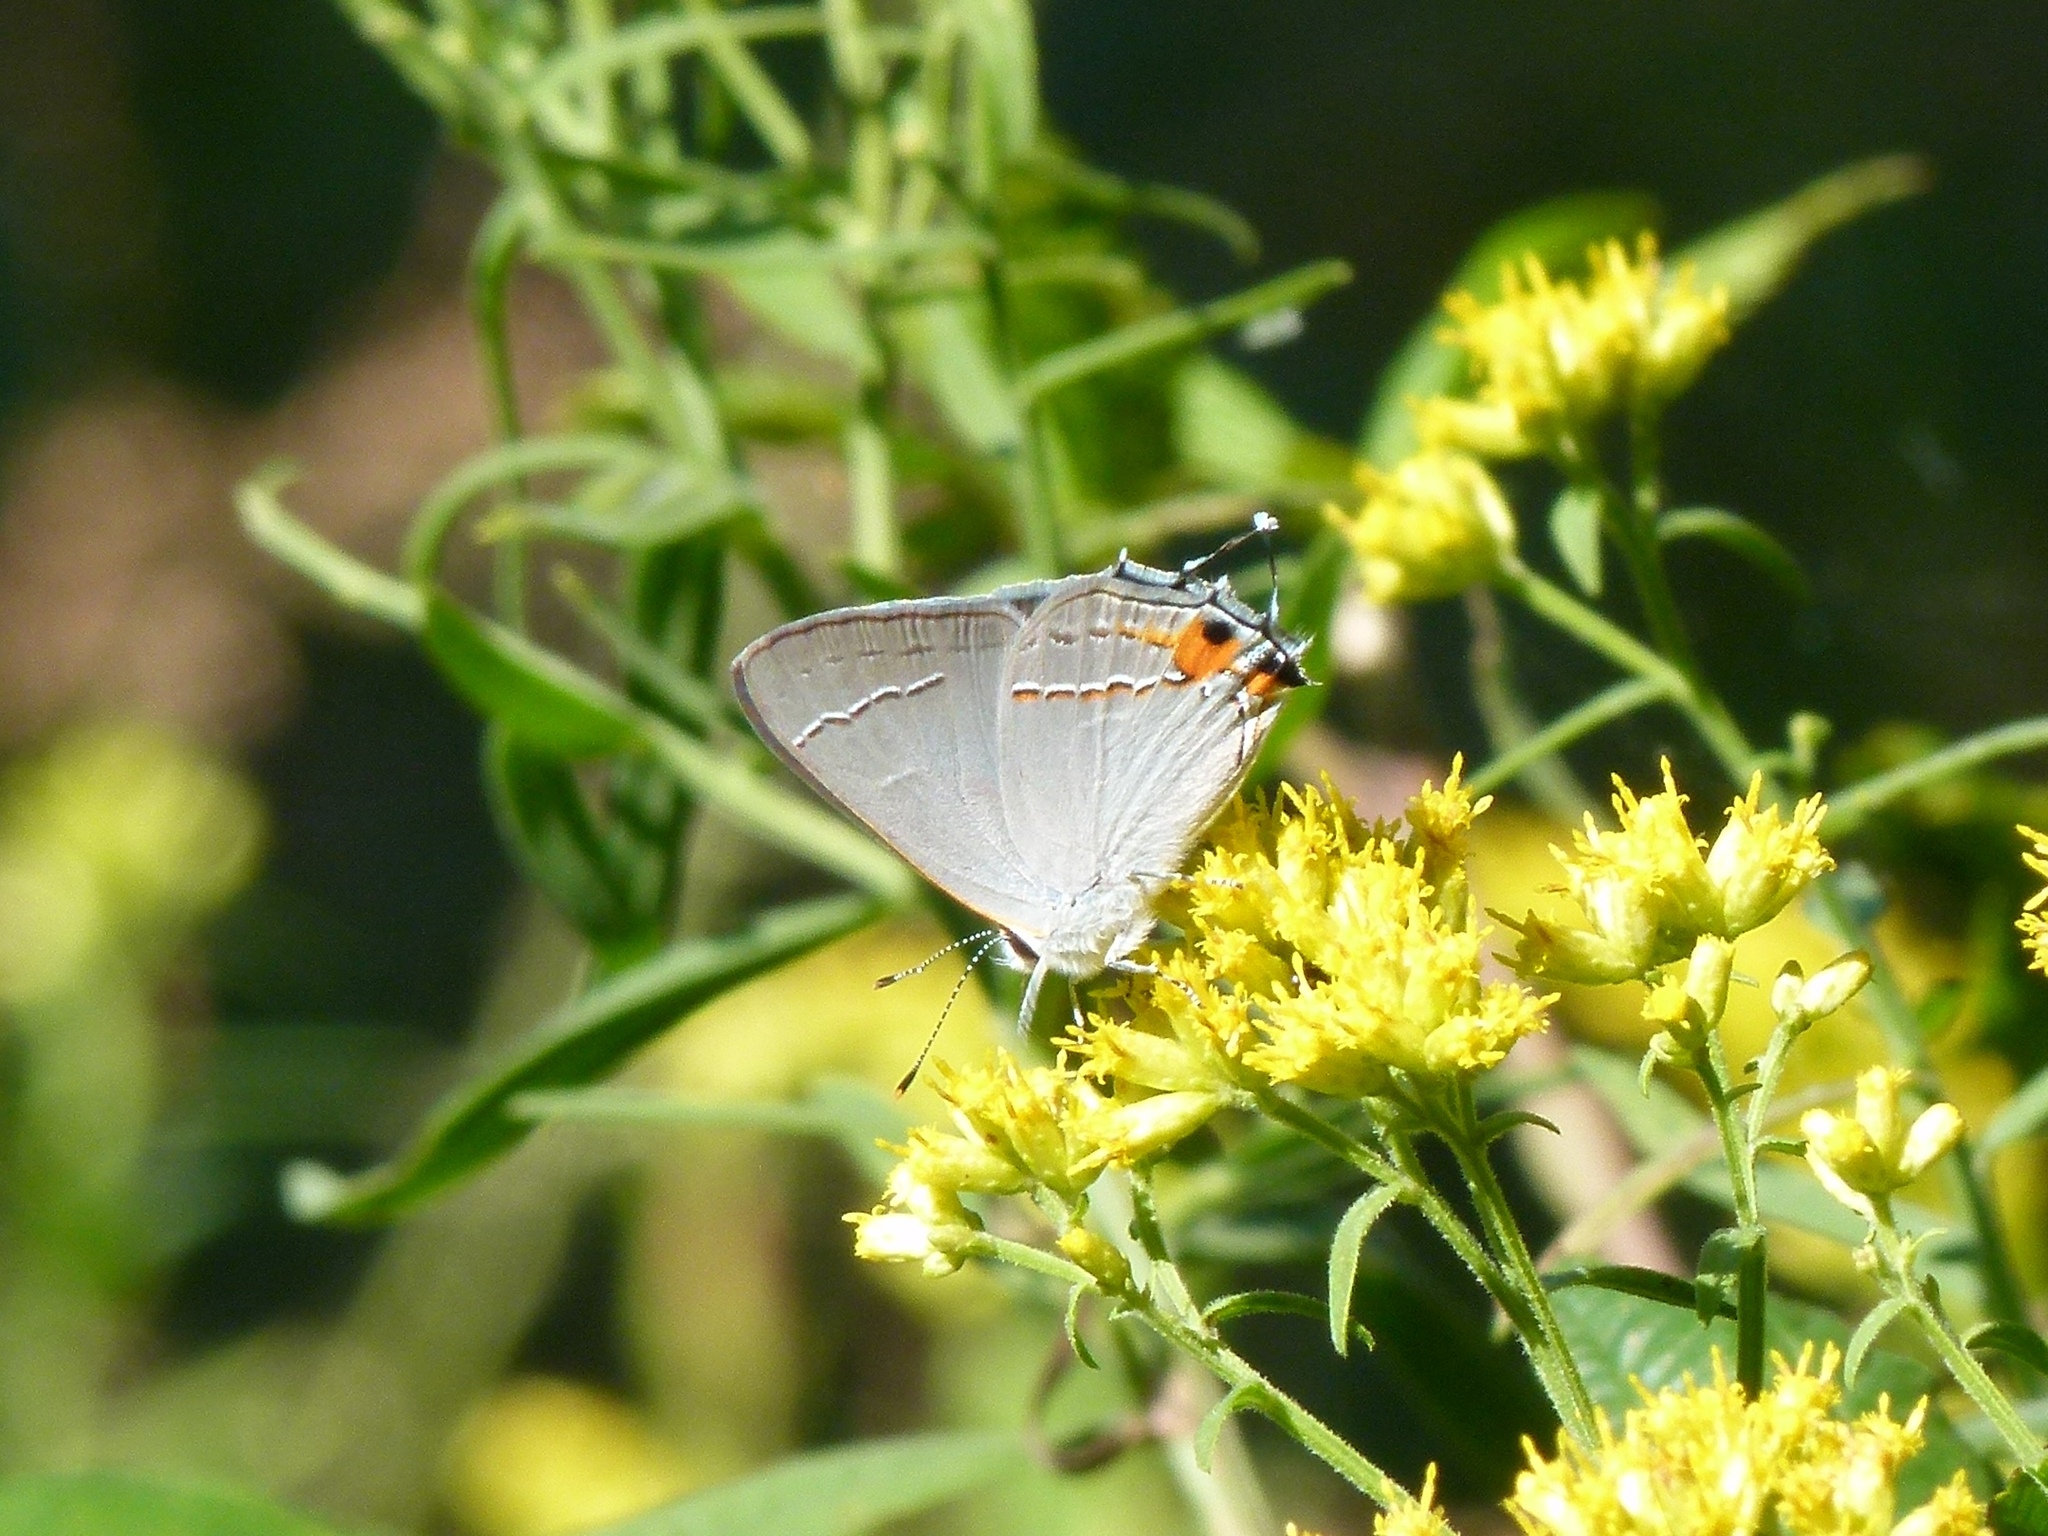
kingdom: Animalia
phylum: Arthropoda
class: Insecta
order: Lepidoptera
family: Lycaenidae
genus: Strymon
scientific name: Strymon melinus
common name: Gray hairstreak
